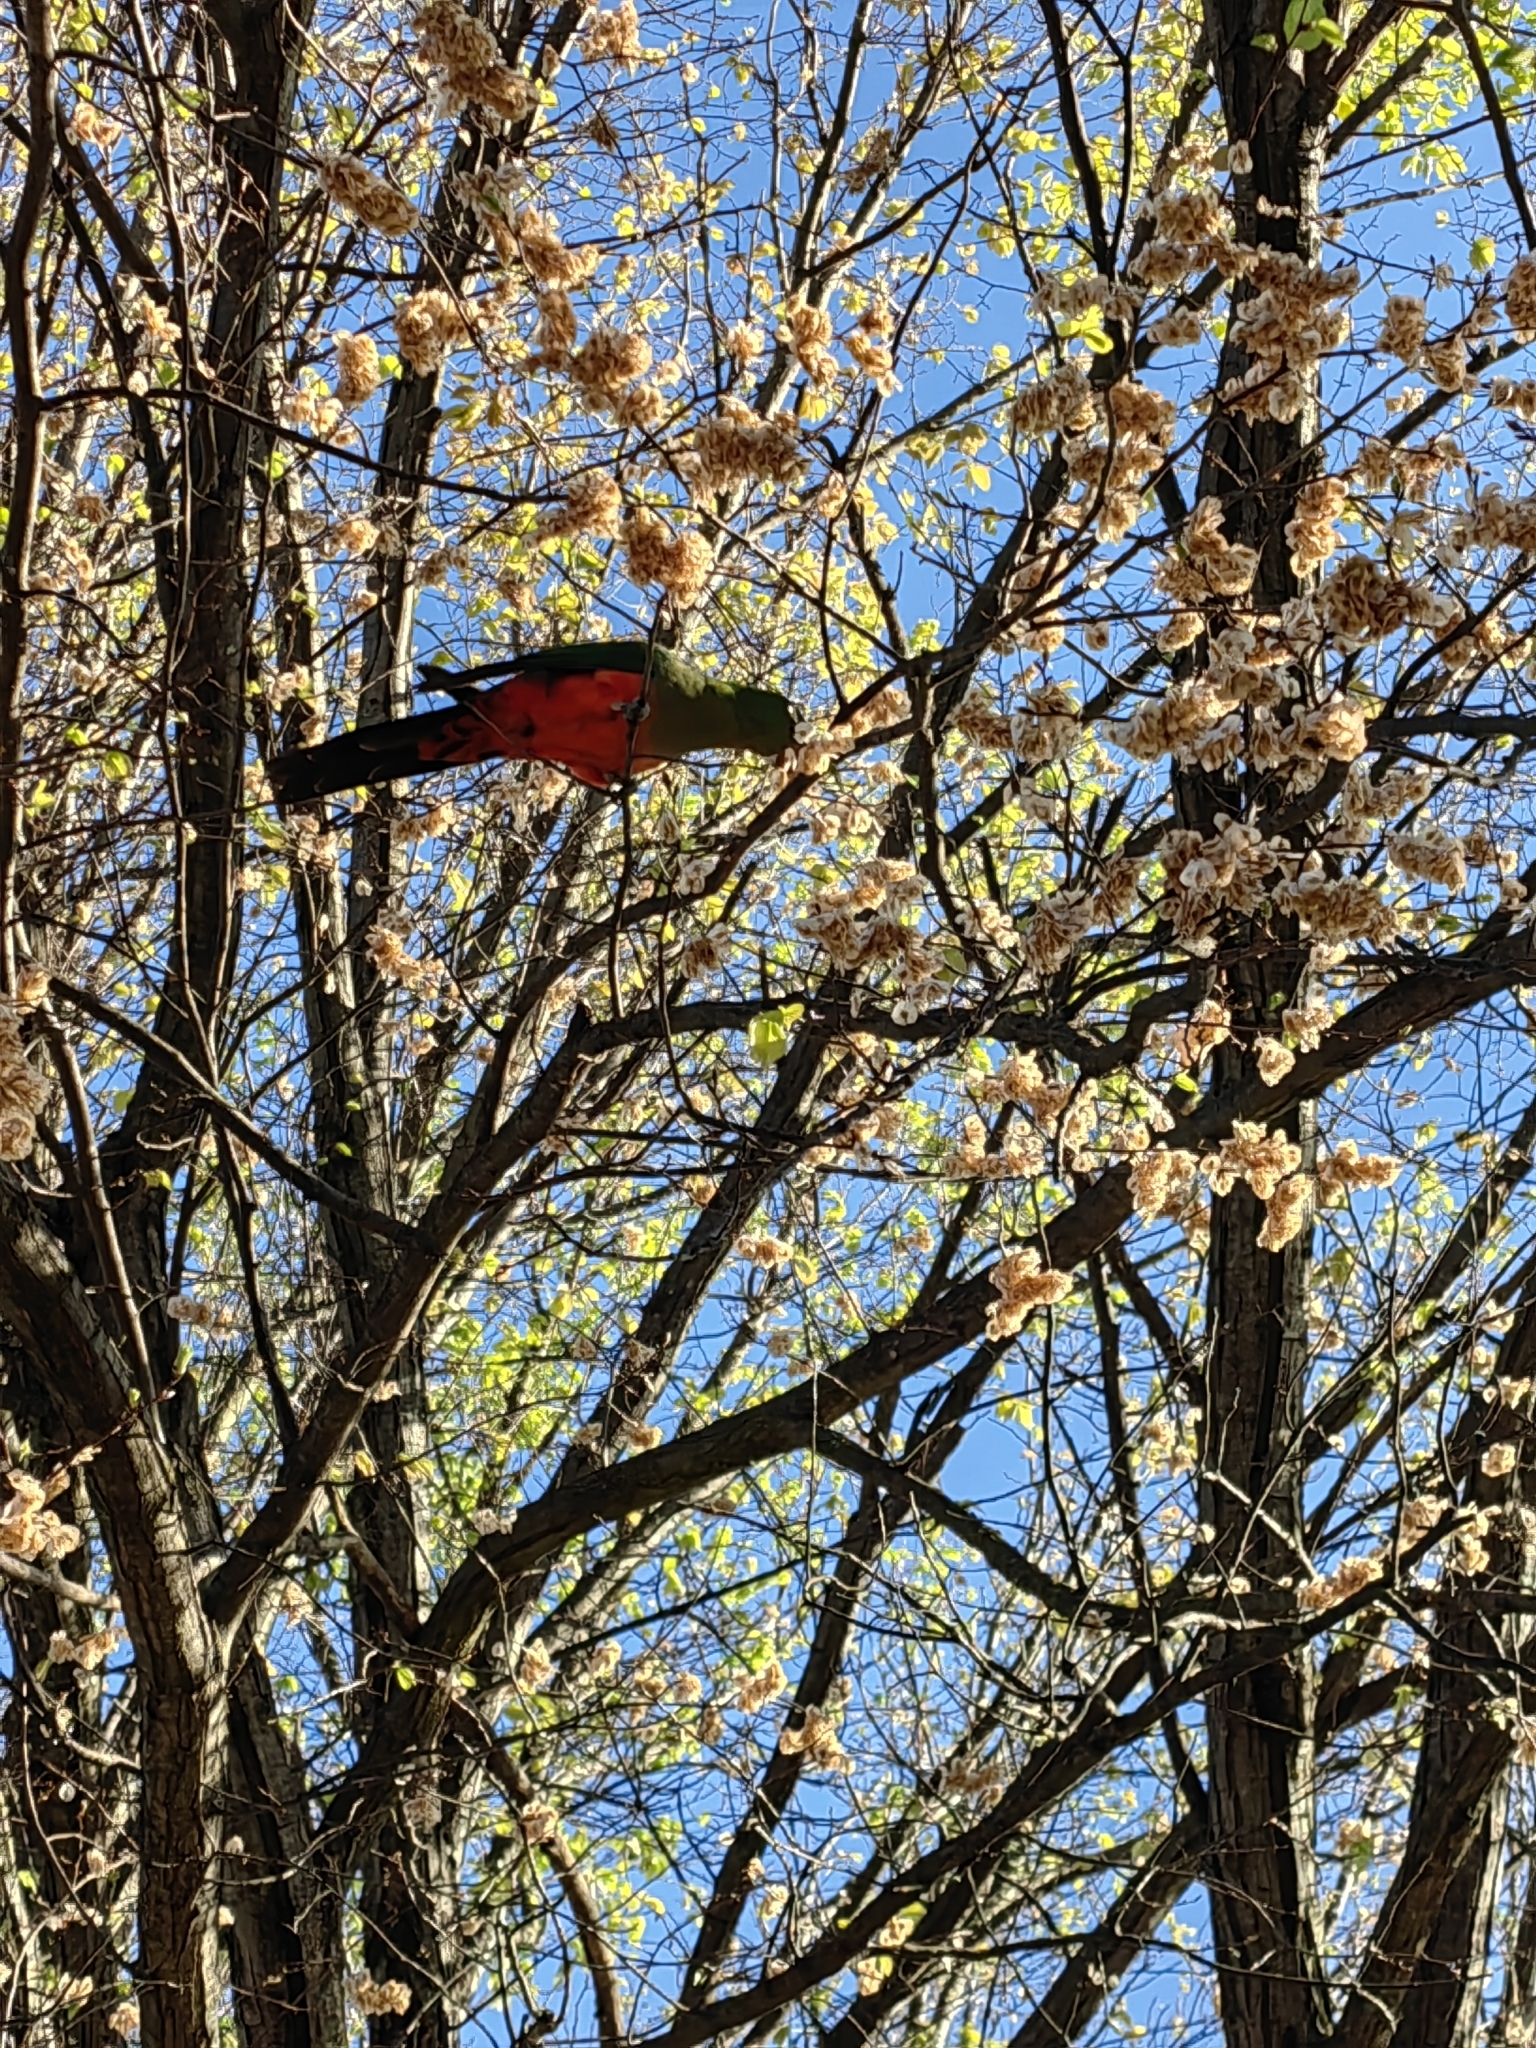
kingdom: Animalia
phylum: Chordata
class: Aves
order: Psittaciformes
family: Psittacidae
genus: Alisterus
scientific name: Alisterus scapularis
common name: Australian king parrot
